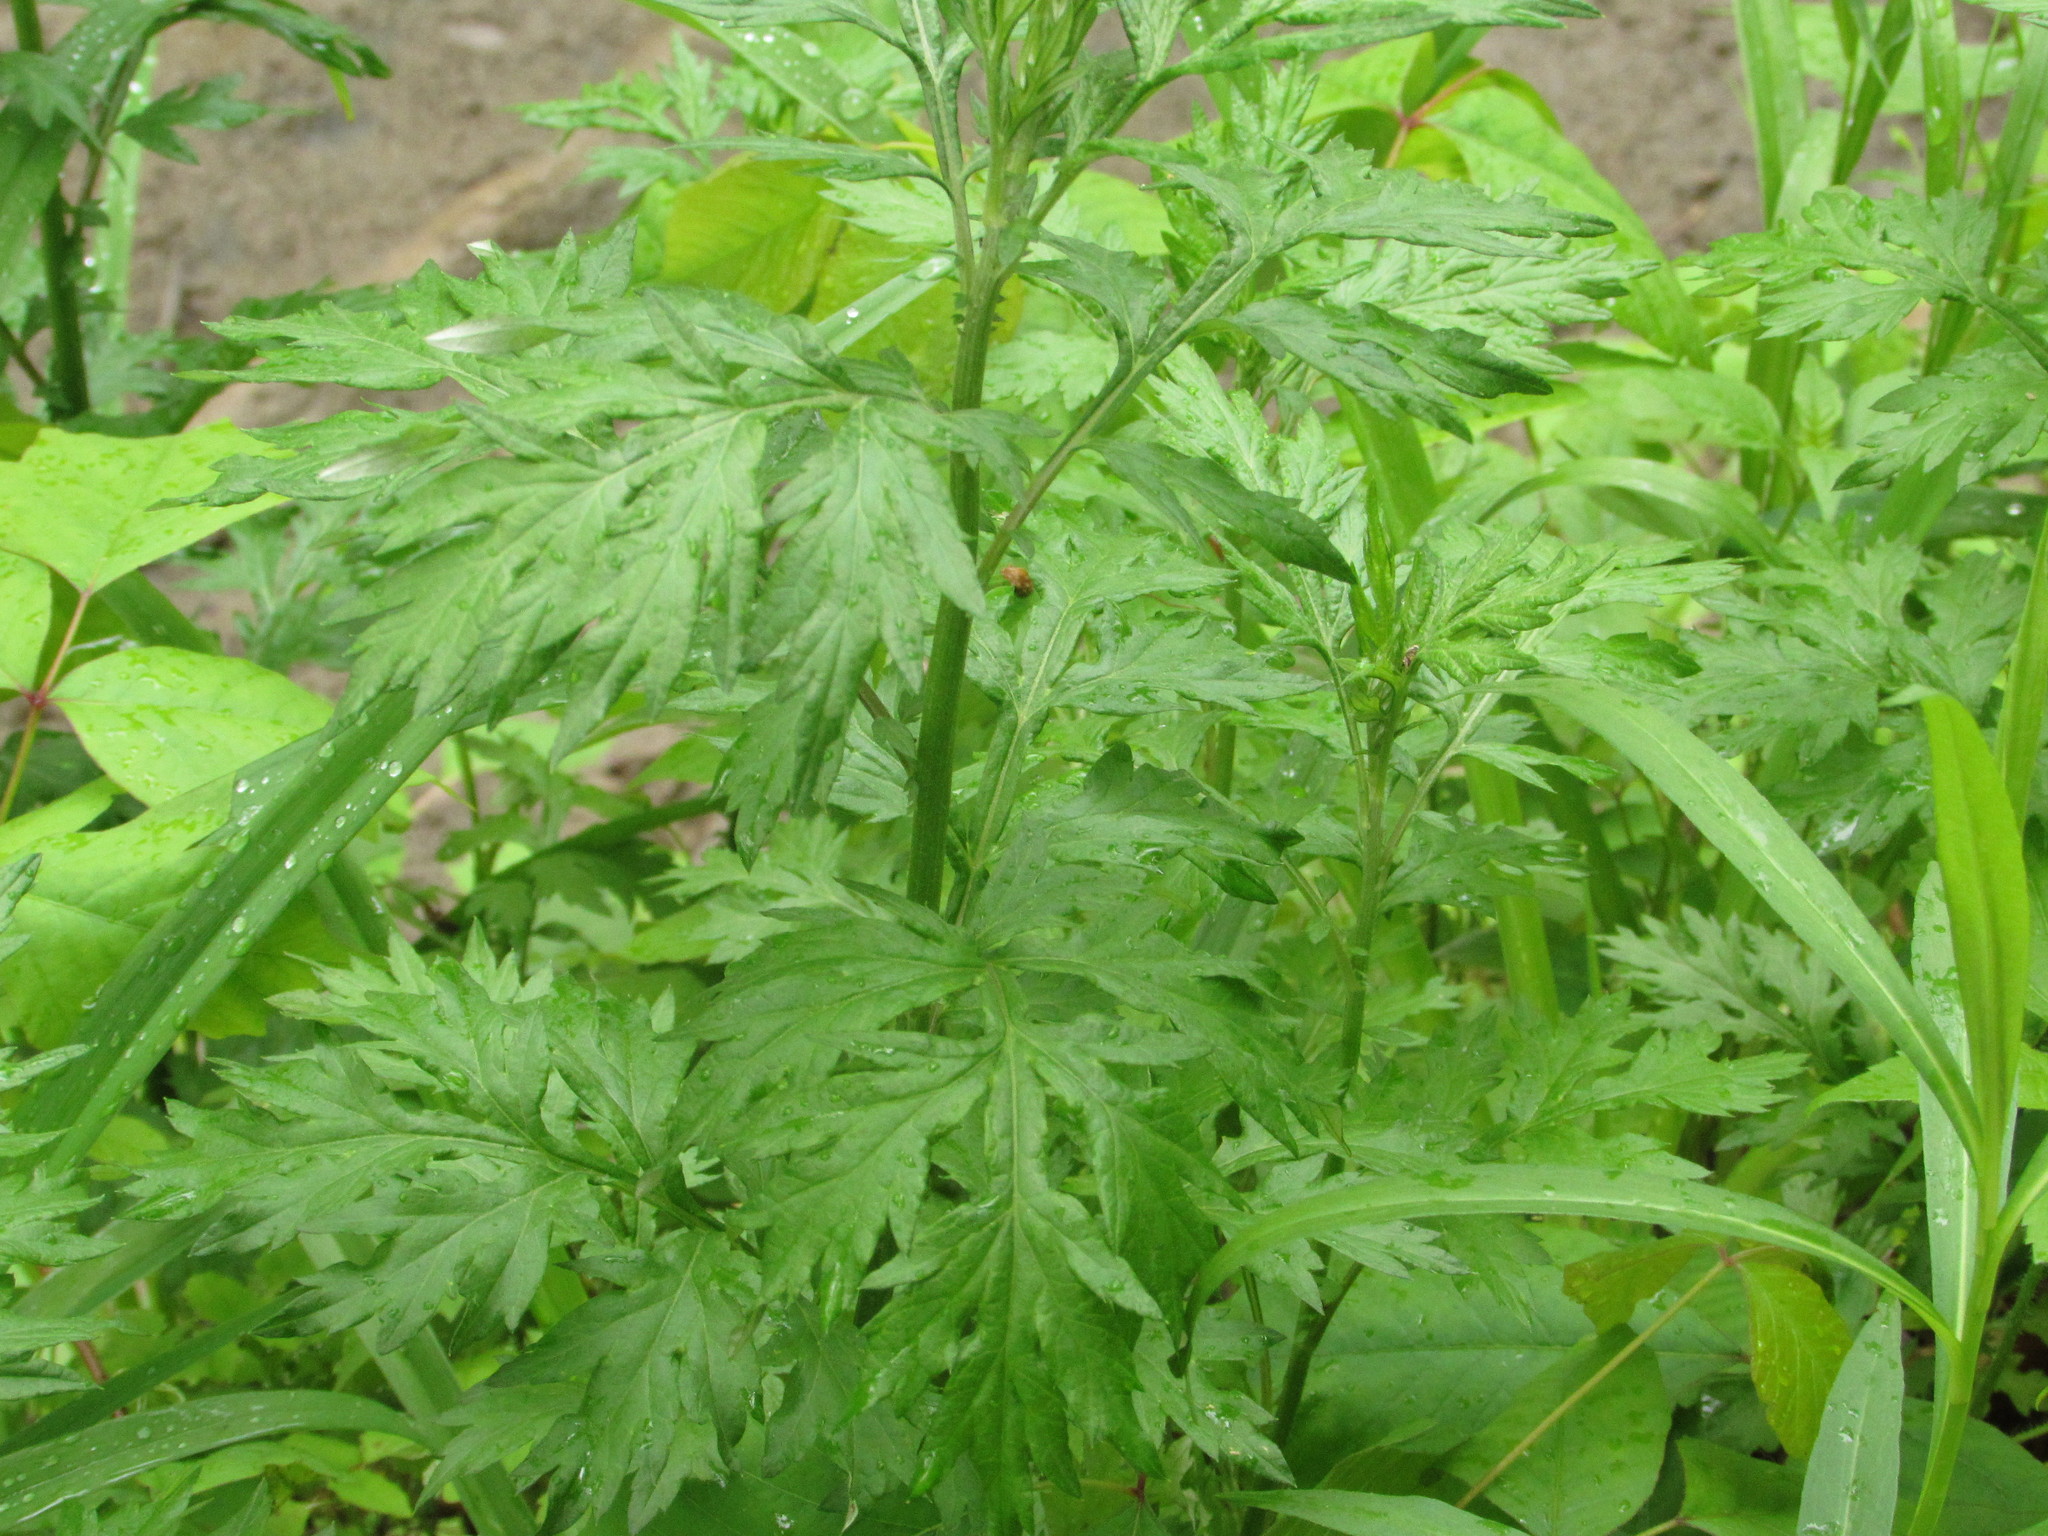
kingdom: Plantae
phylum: Tracheophyta
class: Magnoliopsida
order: Asterales
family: Asteraceae
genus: Artemisia
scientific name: Artemisia vulgaris
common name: Mugwort
